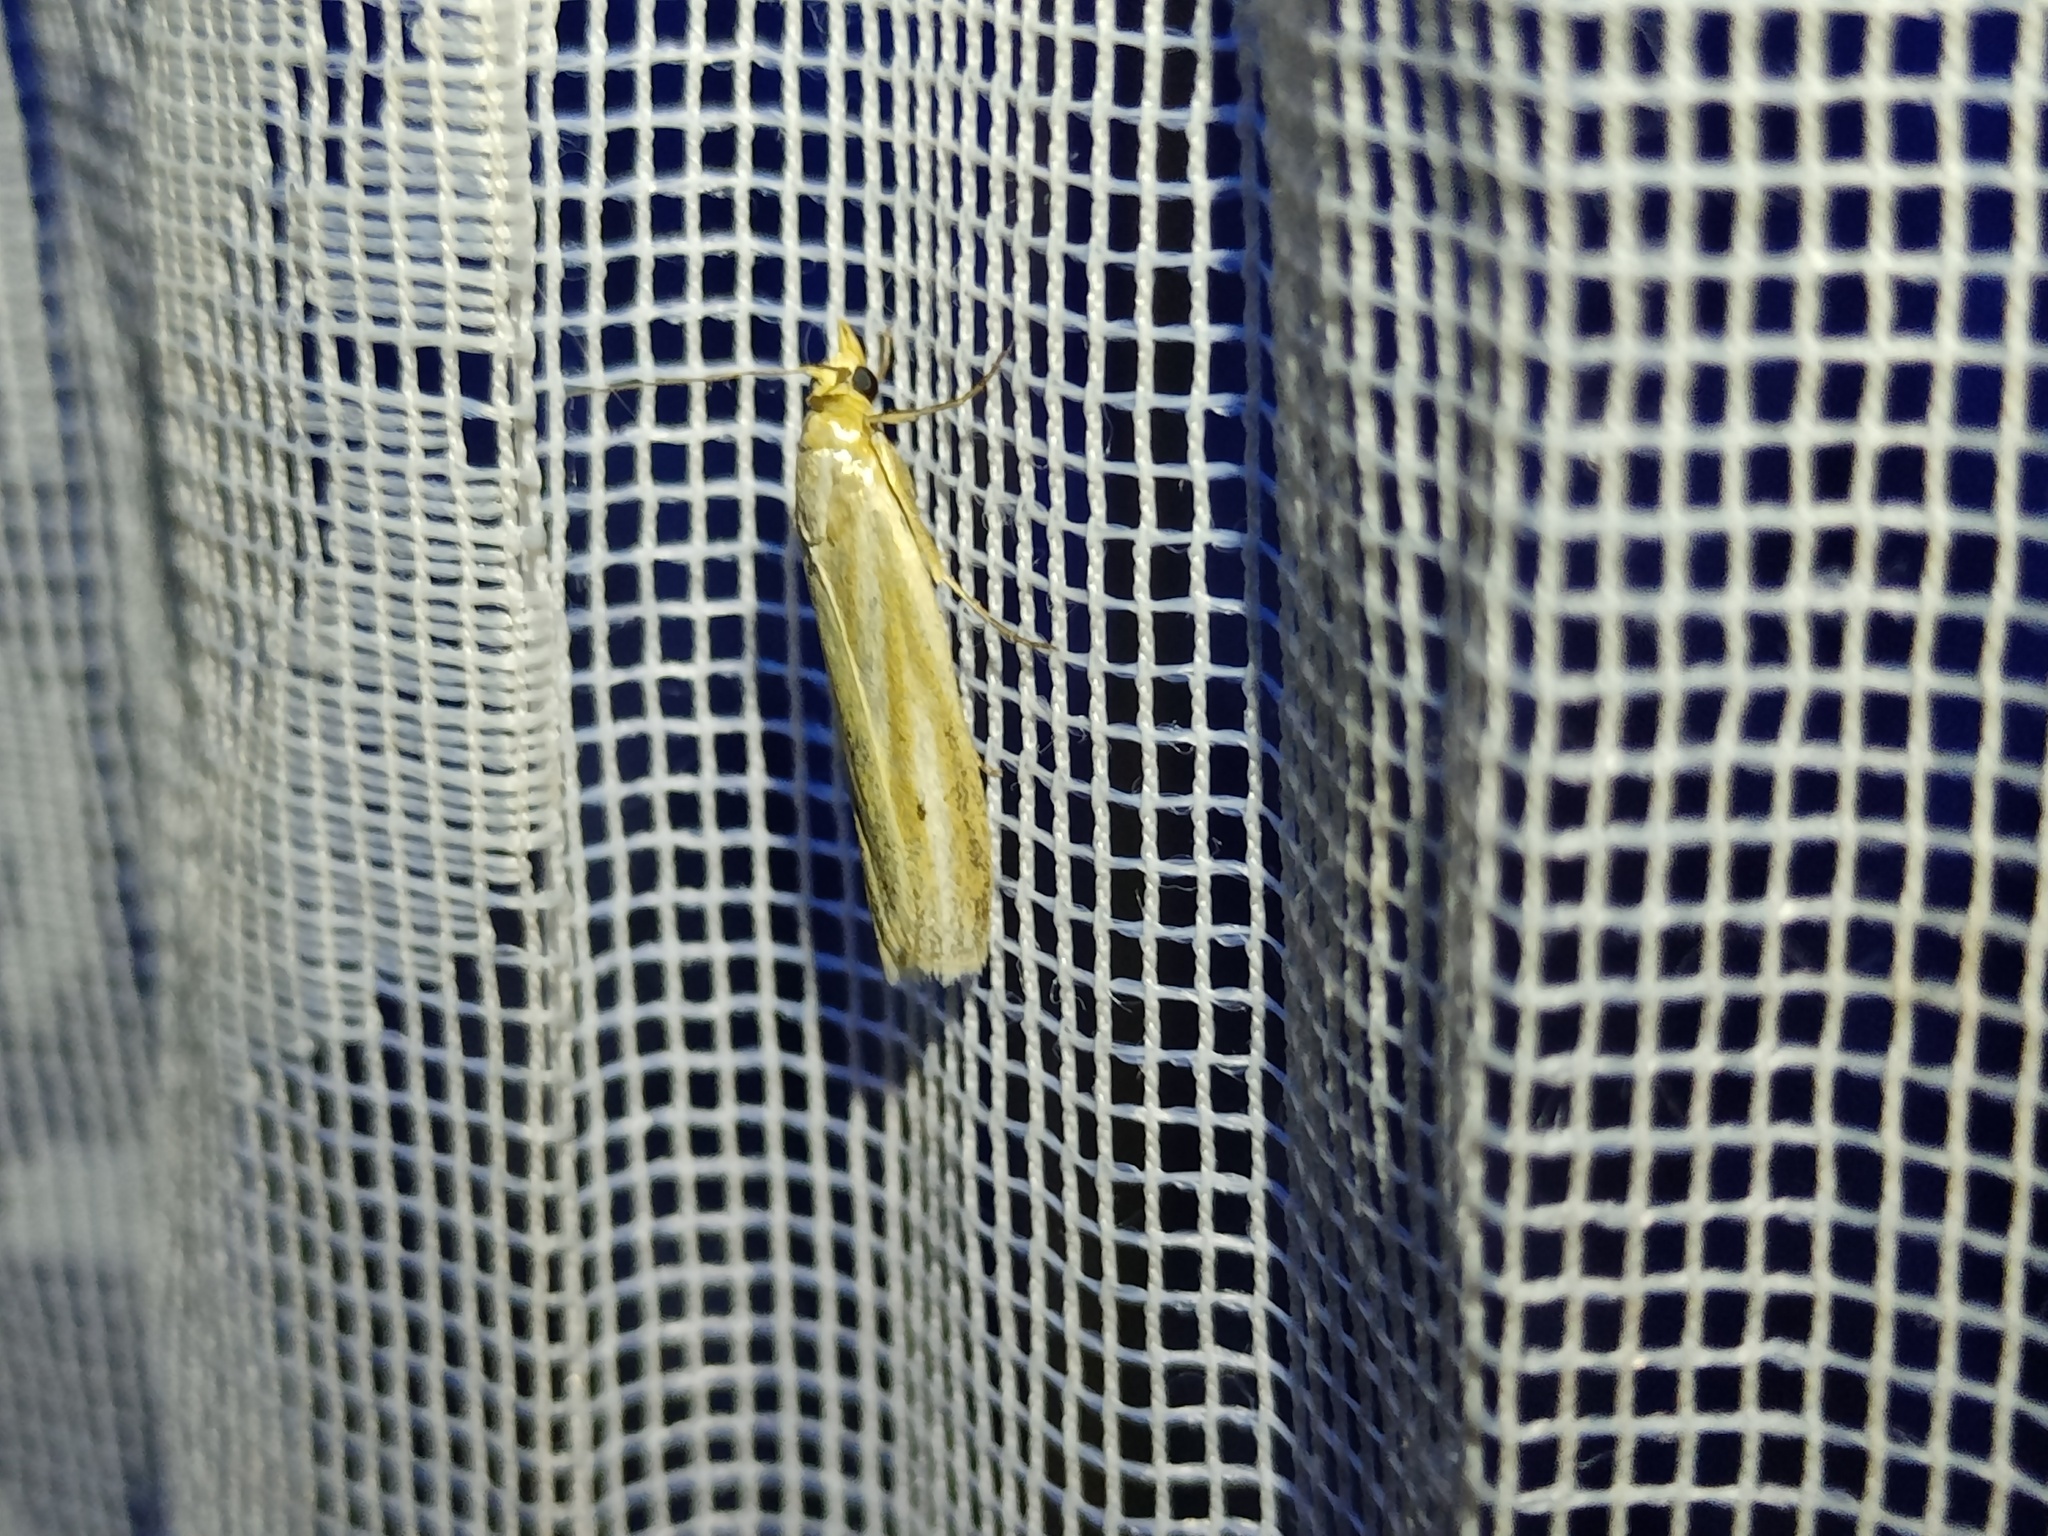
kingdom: Animalia
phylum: Arthropoda
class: Insecta
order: Lepidoptera
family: Pyralidae
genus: Selagia
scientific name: Selagia argyrella
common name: Silvery knot-horn
